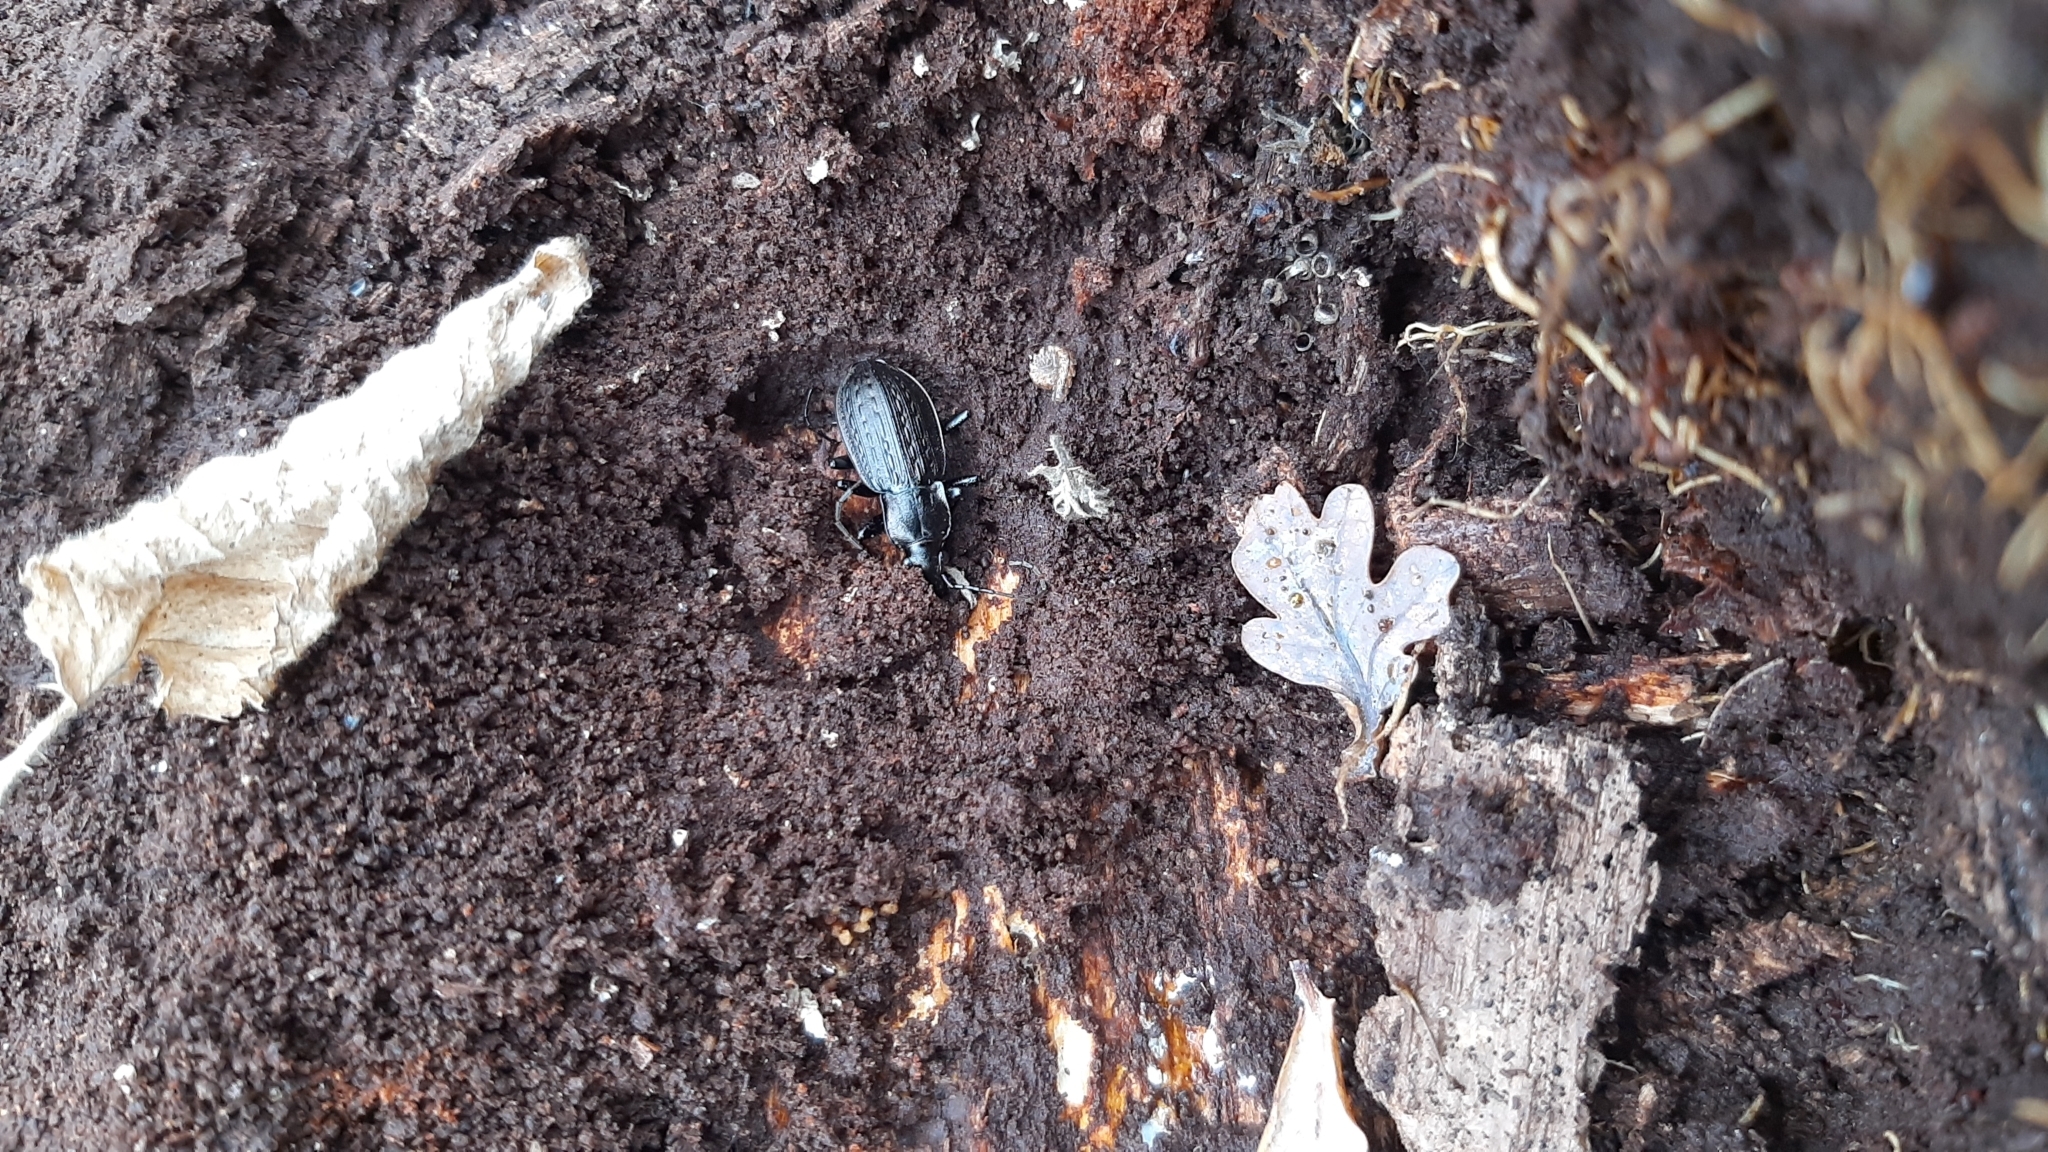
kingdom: Animalia
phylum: Arthropoda
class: Insecta
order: Coleoptera
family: Carabidae
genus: Carabus
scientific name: Carabus granulatus
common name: Granulate ground beetle
